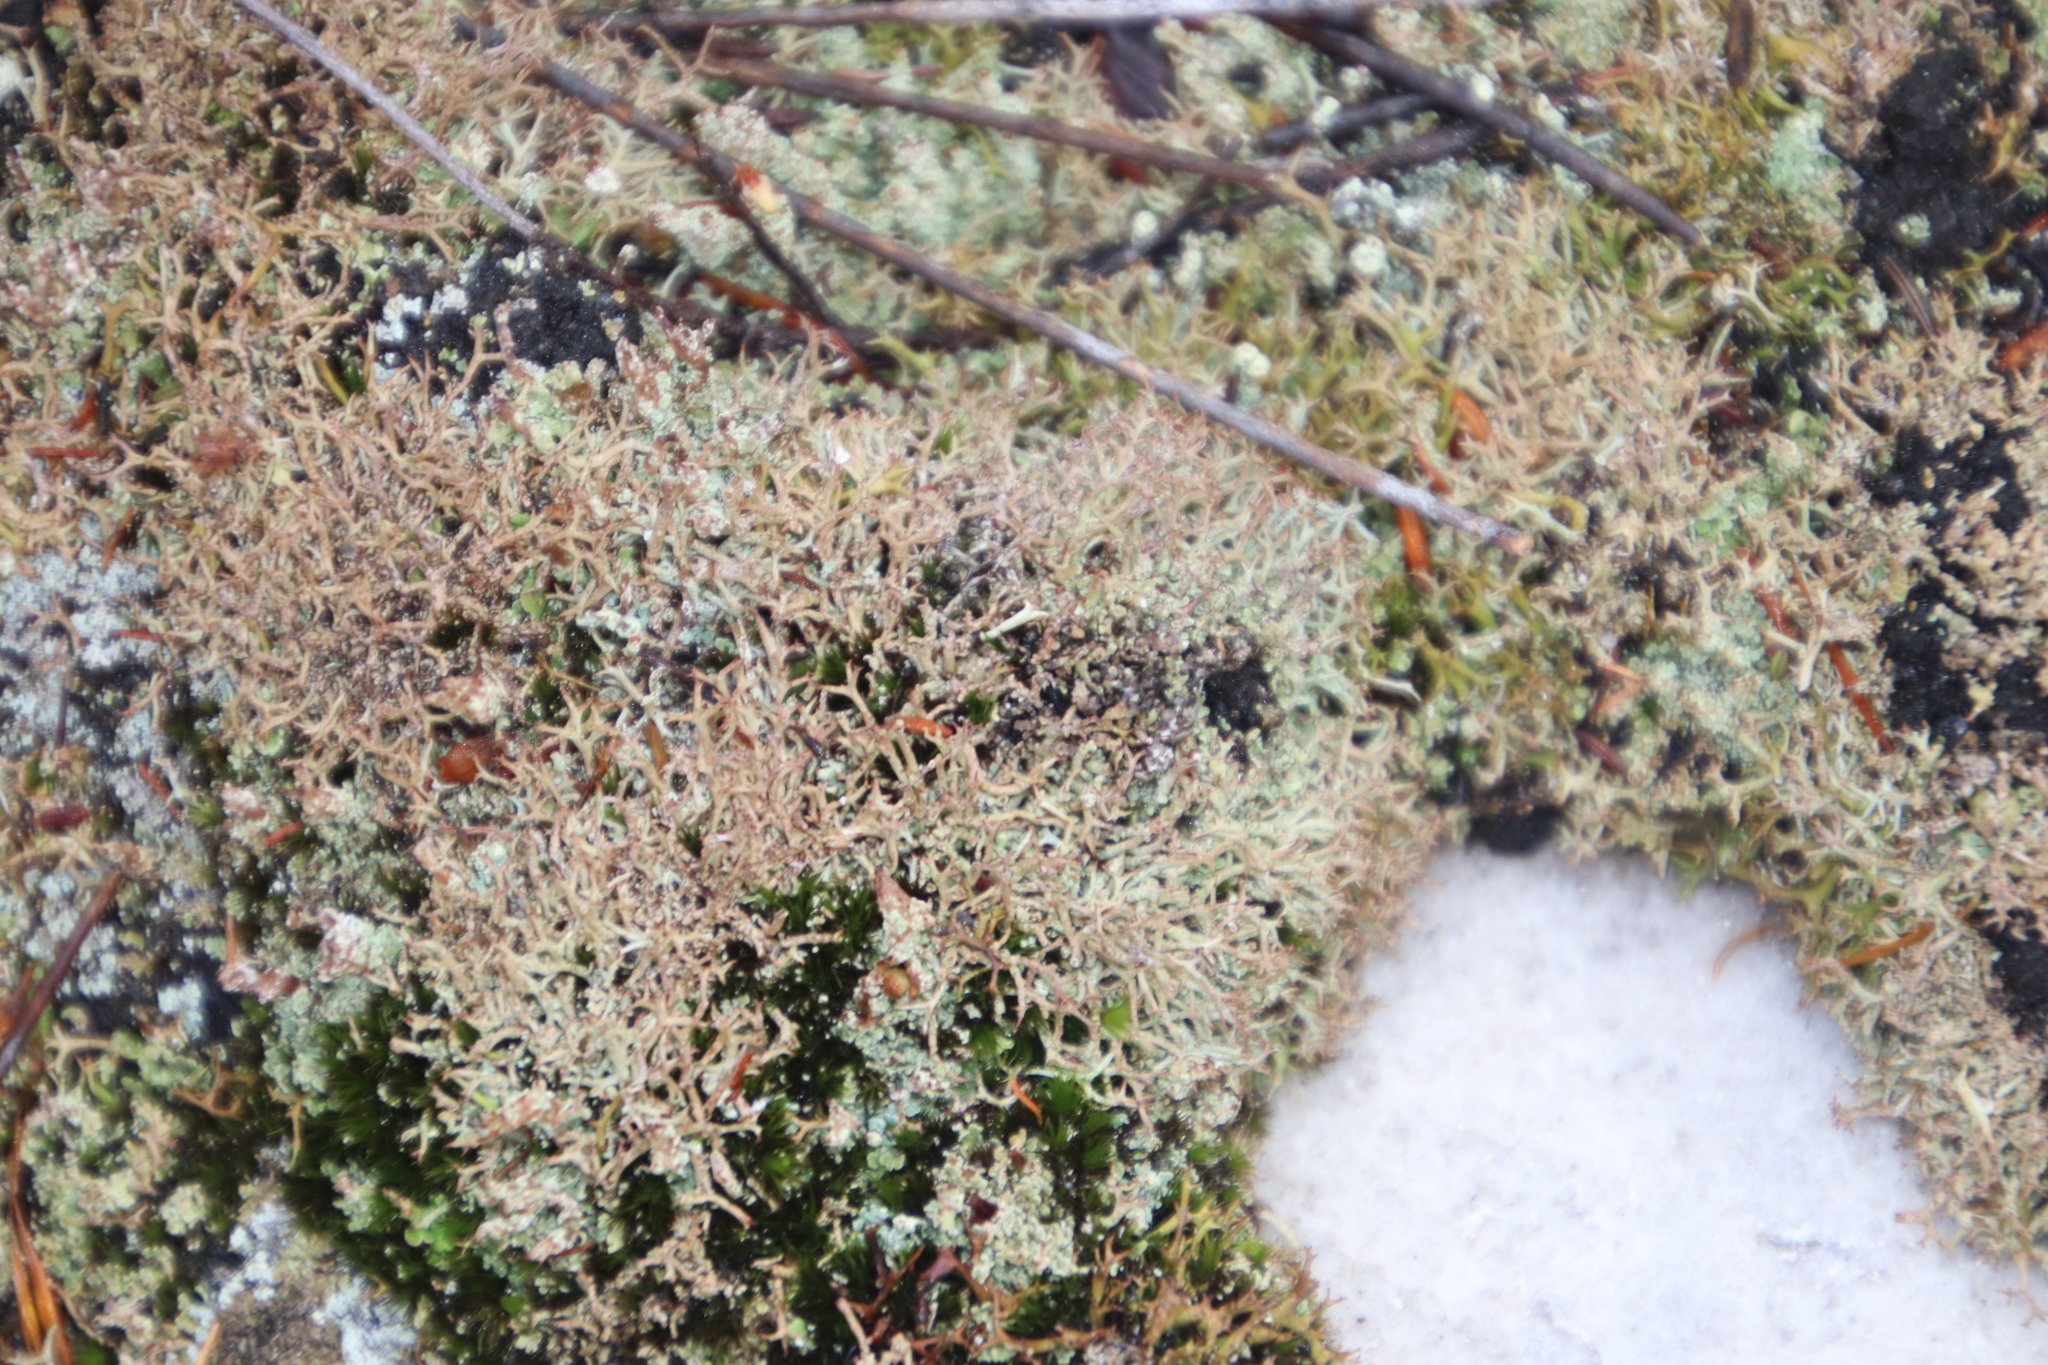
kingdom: Fungi
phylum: Ascomycota
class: Lecanoromycetes
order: Lecanorales
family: Cladoniaceae
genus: Cladia
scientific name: Cladia aggregata
